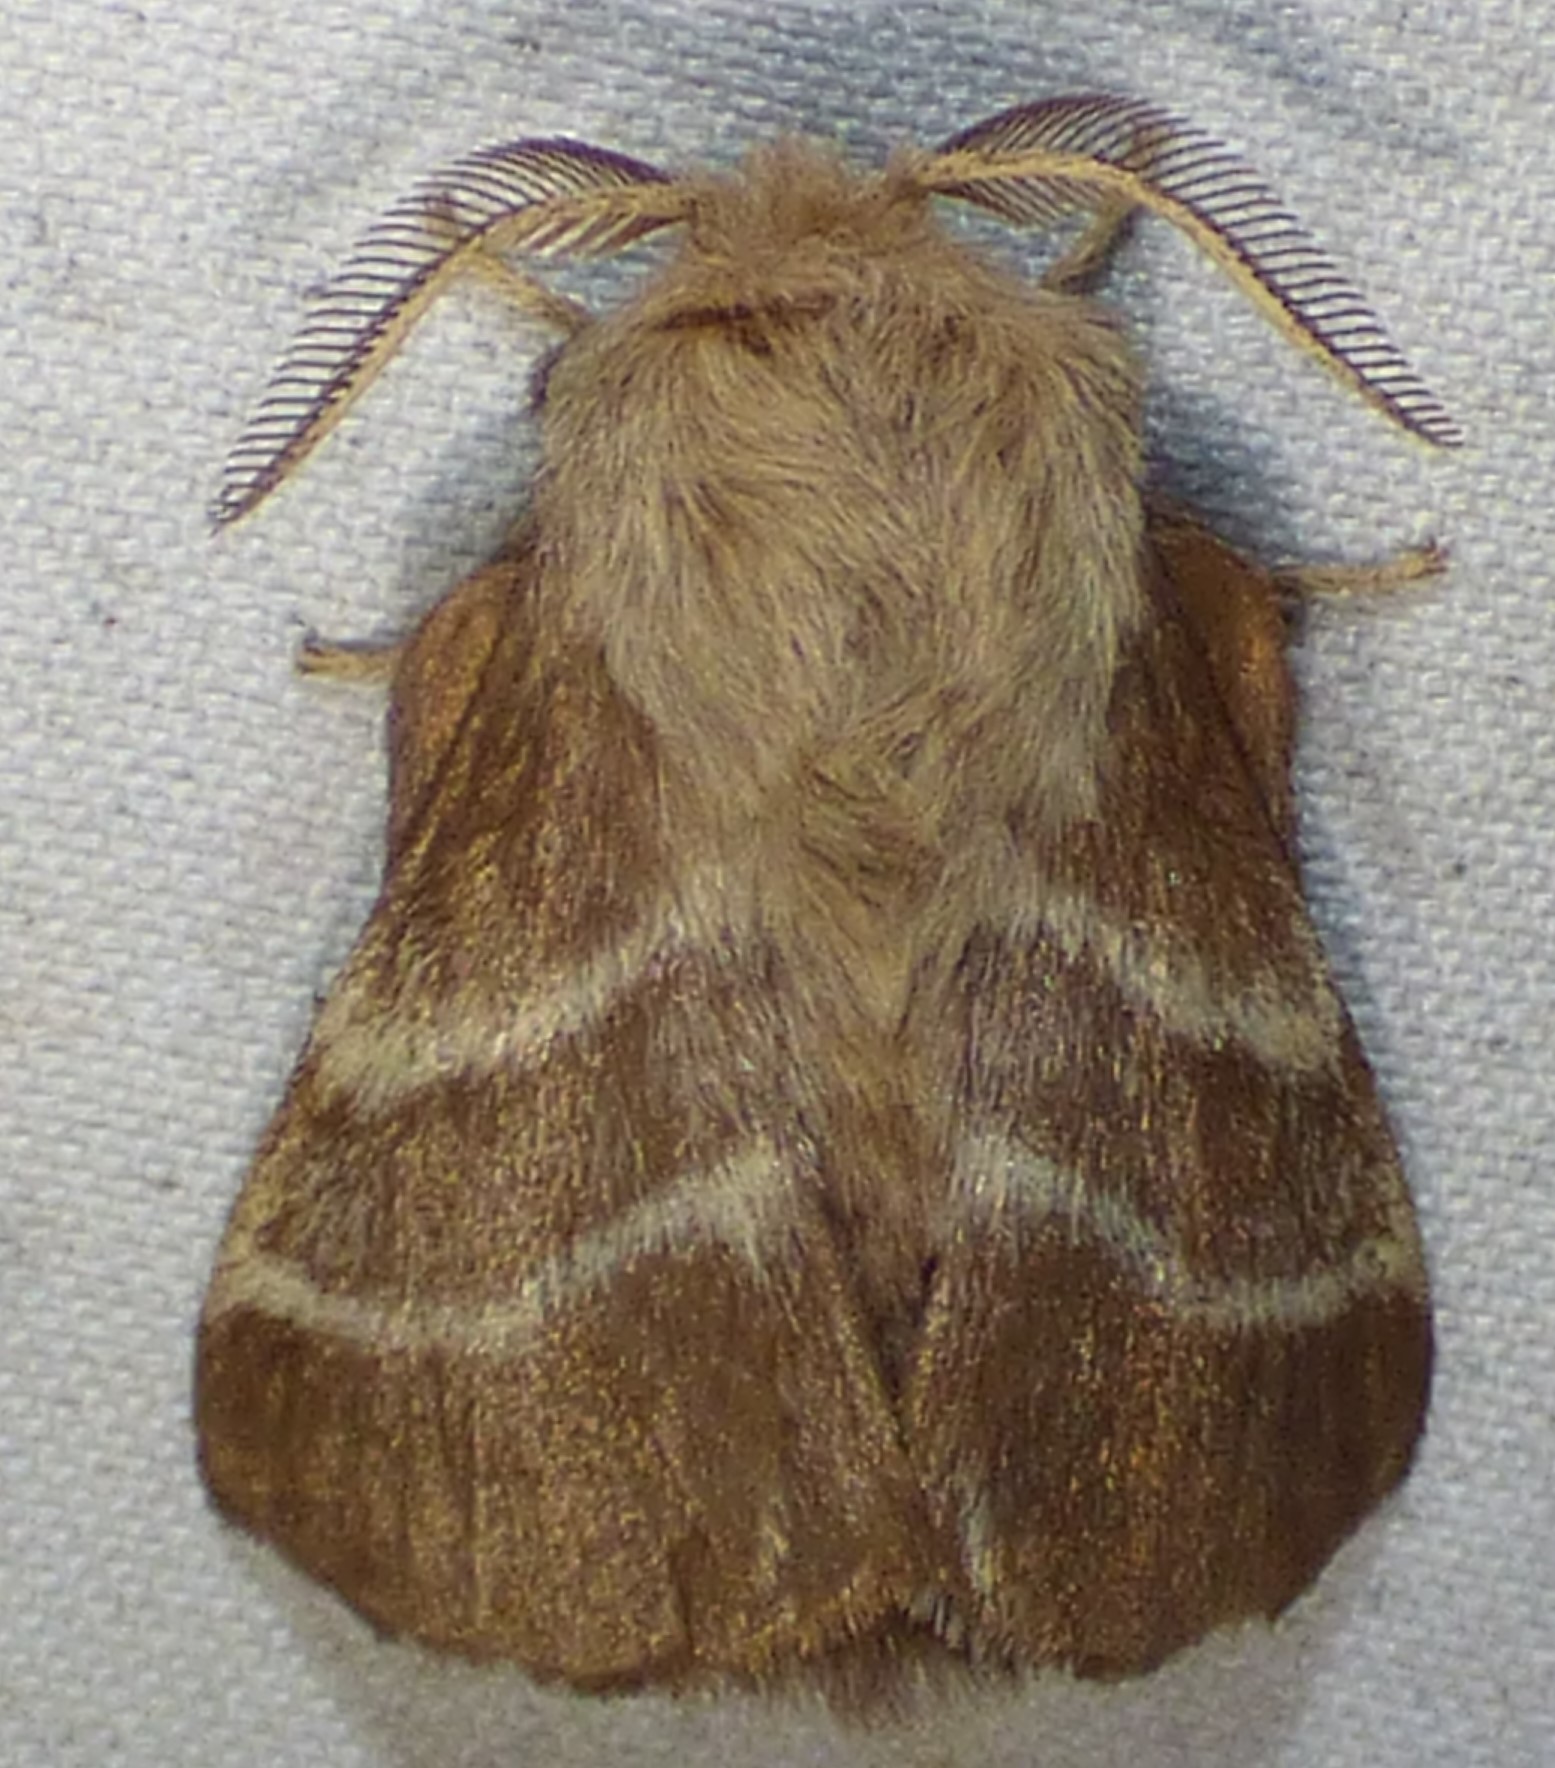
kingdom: Animalia
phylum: Arthropoda
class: Insecta
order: Lepidoptera
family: Lasiocampidae
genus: Malacosoma
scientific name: Malacosoma americana
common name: Eastern tent caterpillar moth
